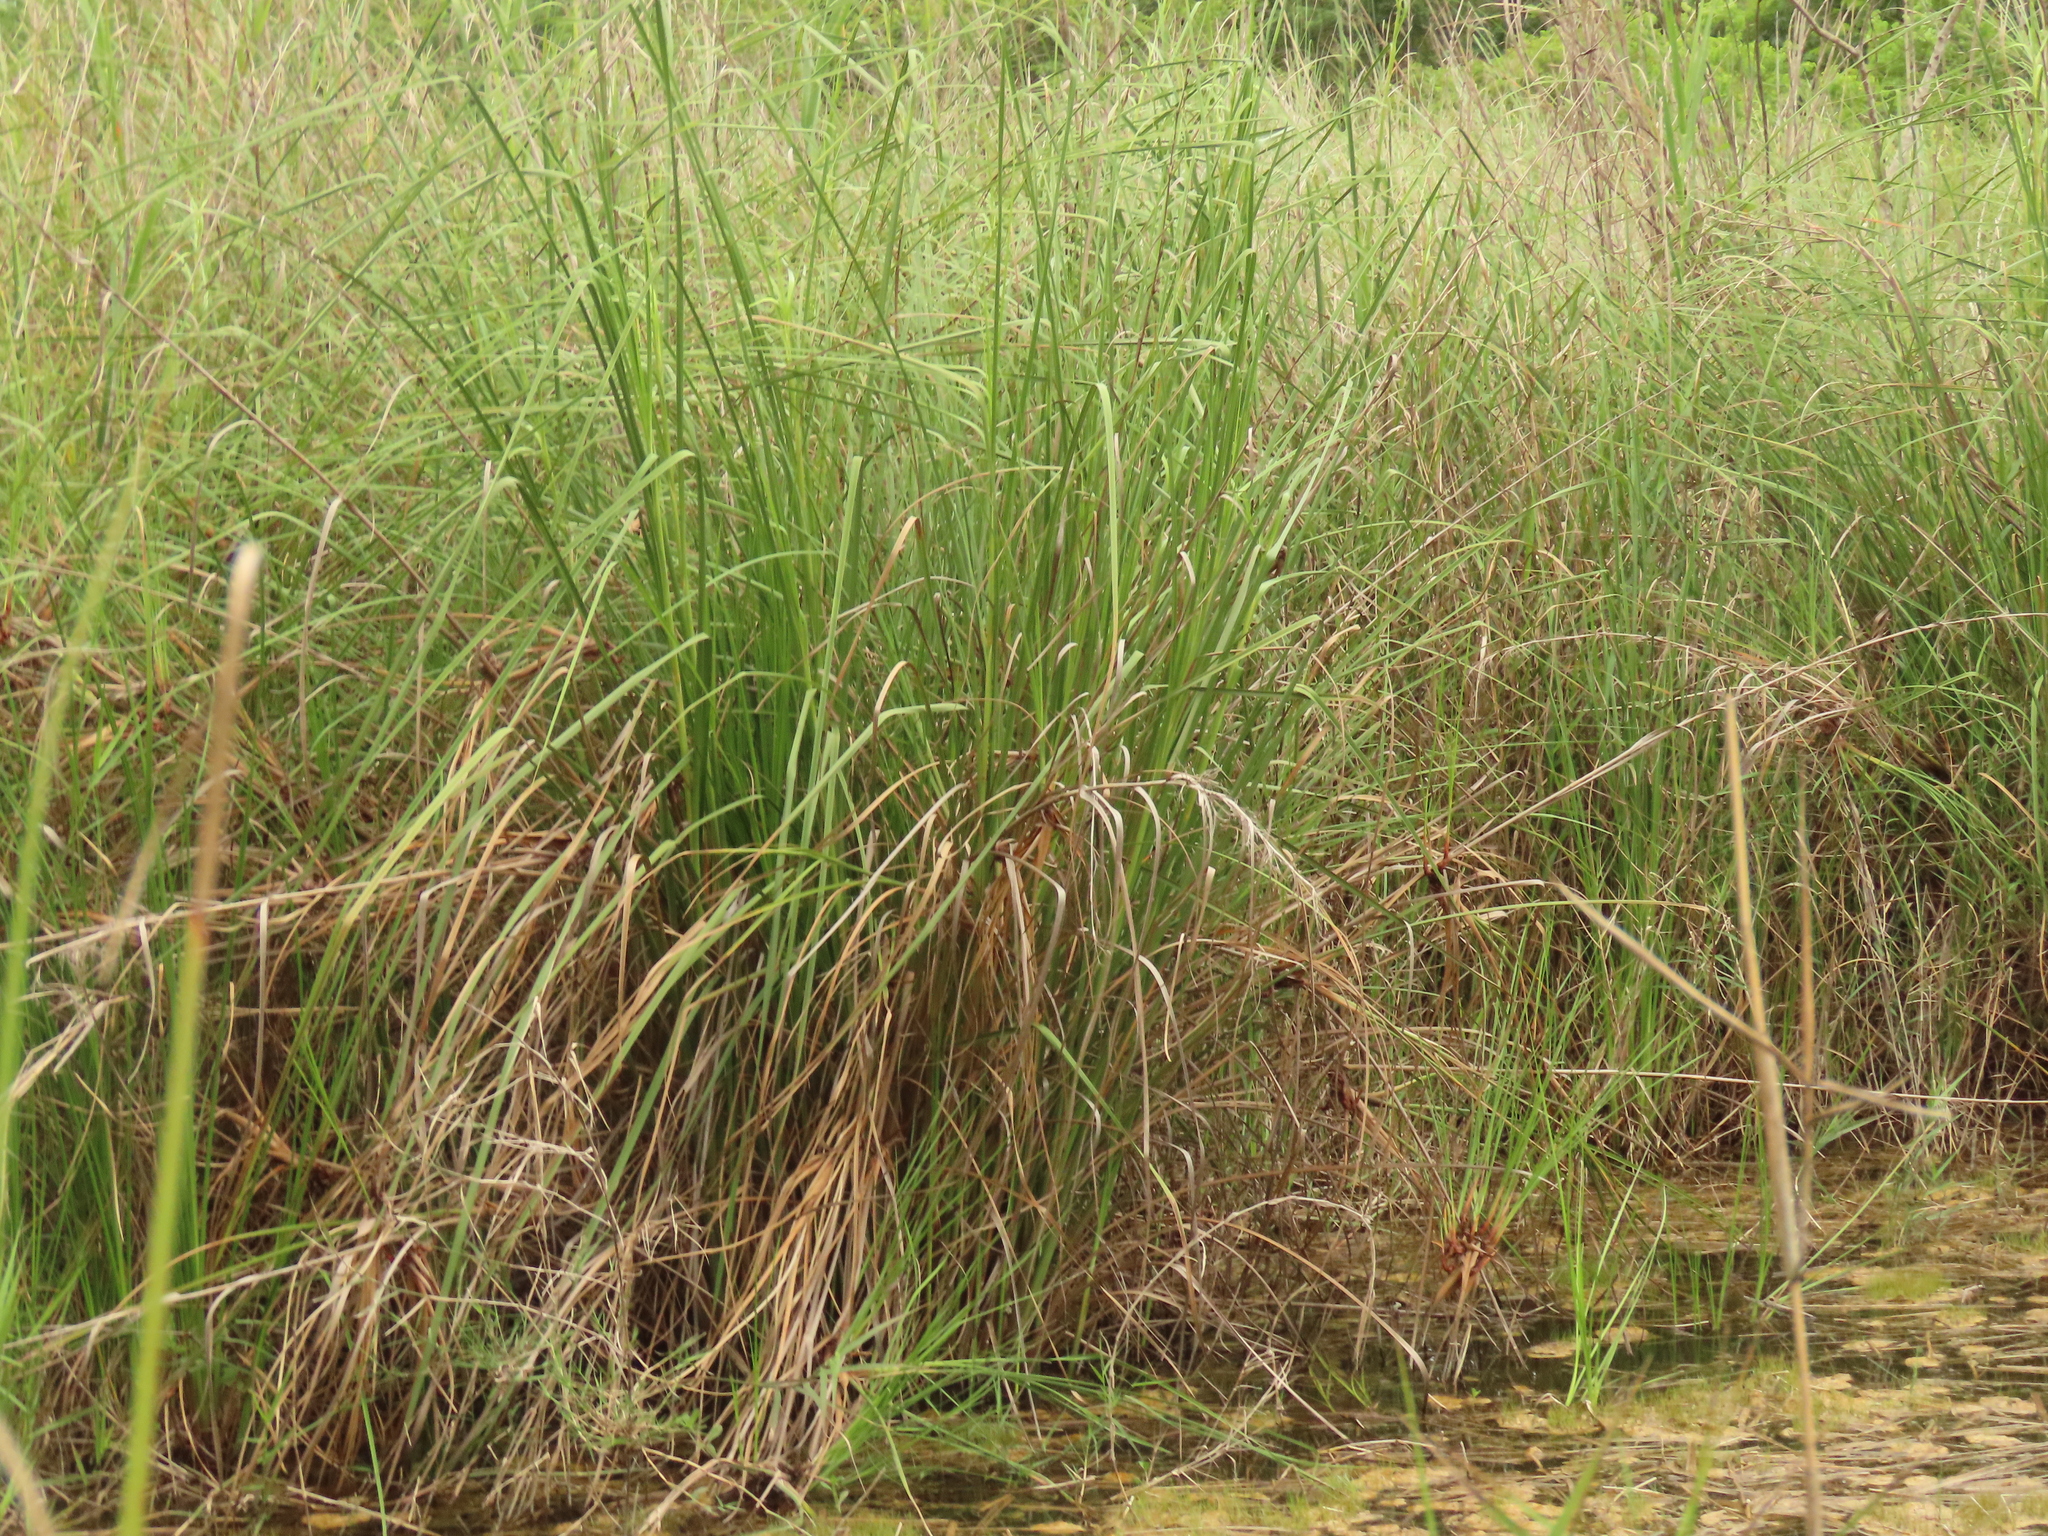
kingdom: Plantae
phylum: Tracheophyta
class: Liliopsida
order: Poales
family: Cyperaceae
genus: Cladium
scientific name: Cladium mariscus
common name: Great fen-sedge
